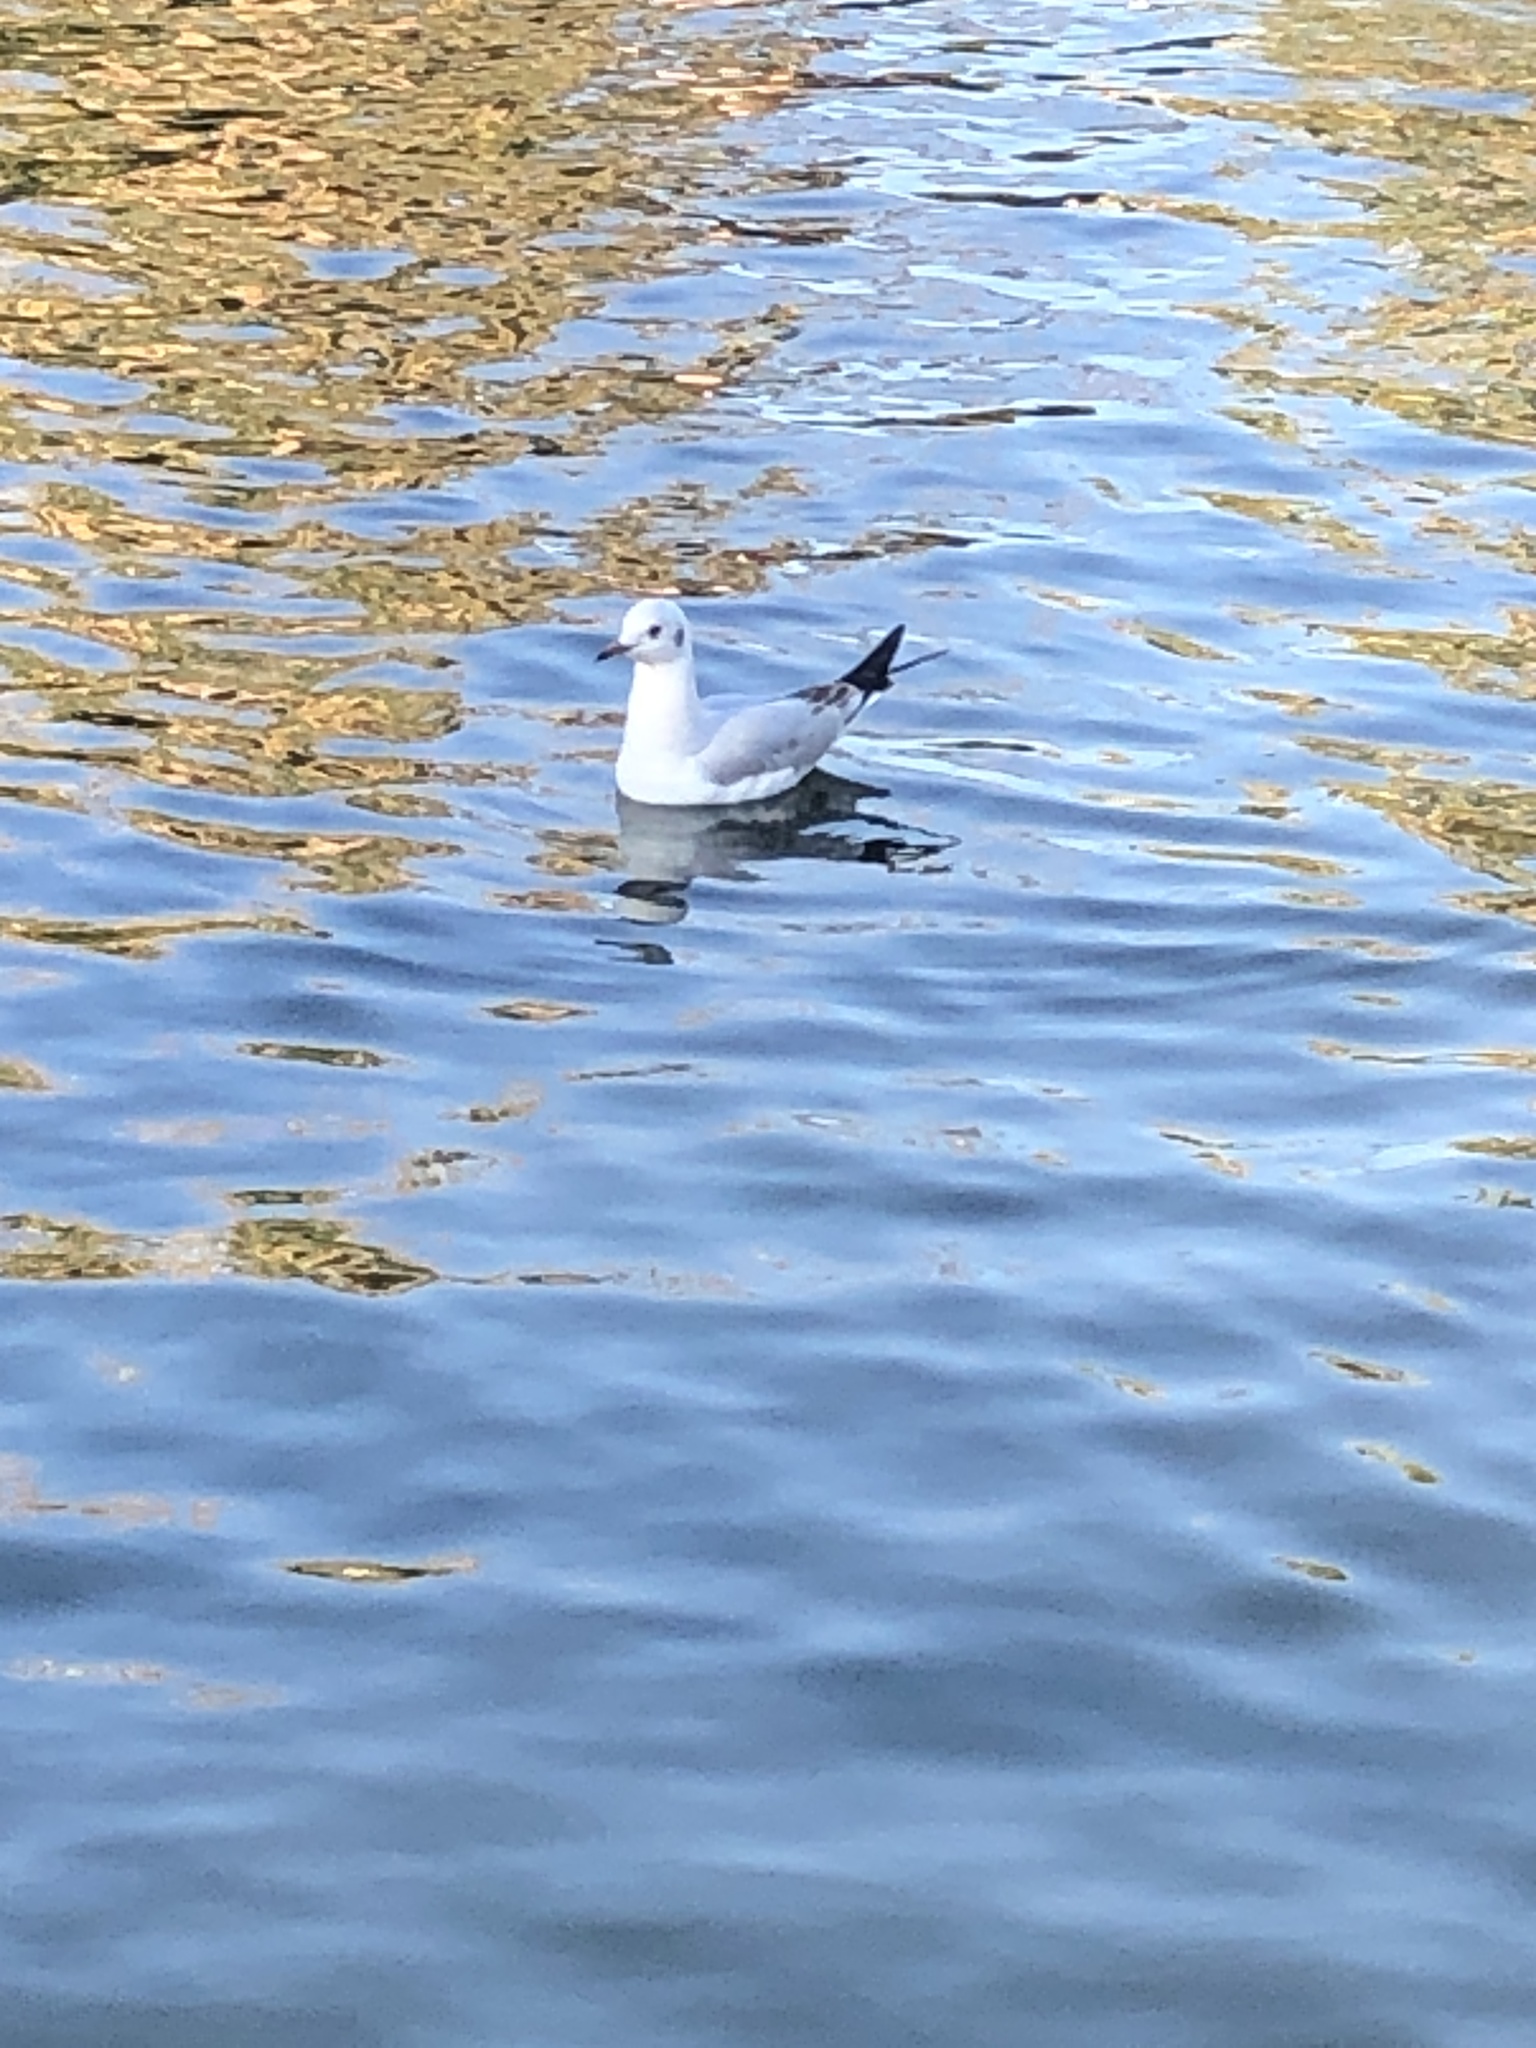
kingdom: Animalia
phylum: Chordata
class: Aves
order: Charadriiformes
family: Laridae
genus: Chroicocephalus
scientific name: Chroicocephalus ridibundus
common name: Black-headed gull
